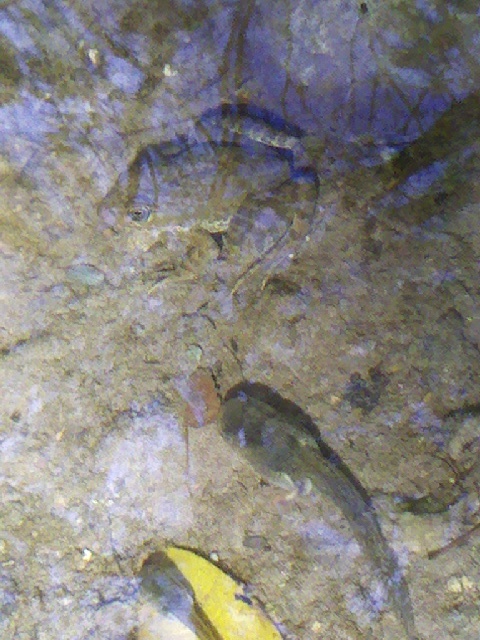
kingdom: Animalia
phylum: Chordata
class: Amphibia
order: Anura
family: Ranidae
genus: Lithobates
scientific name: Lithobates zweifeli
